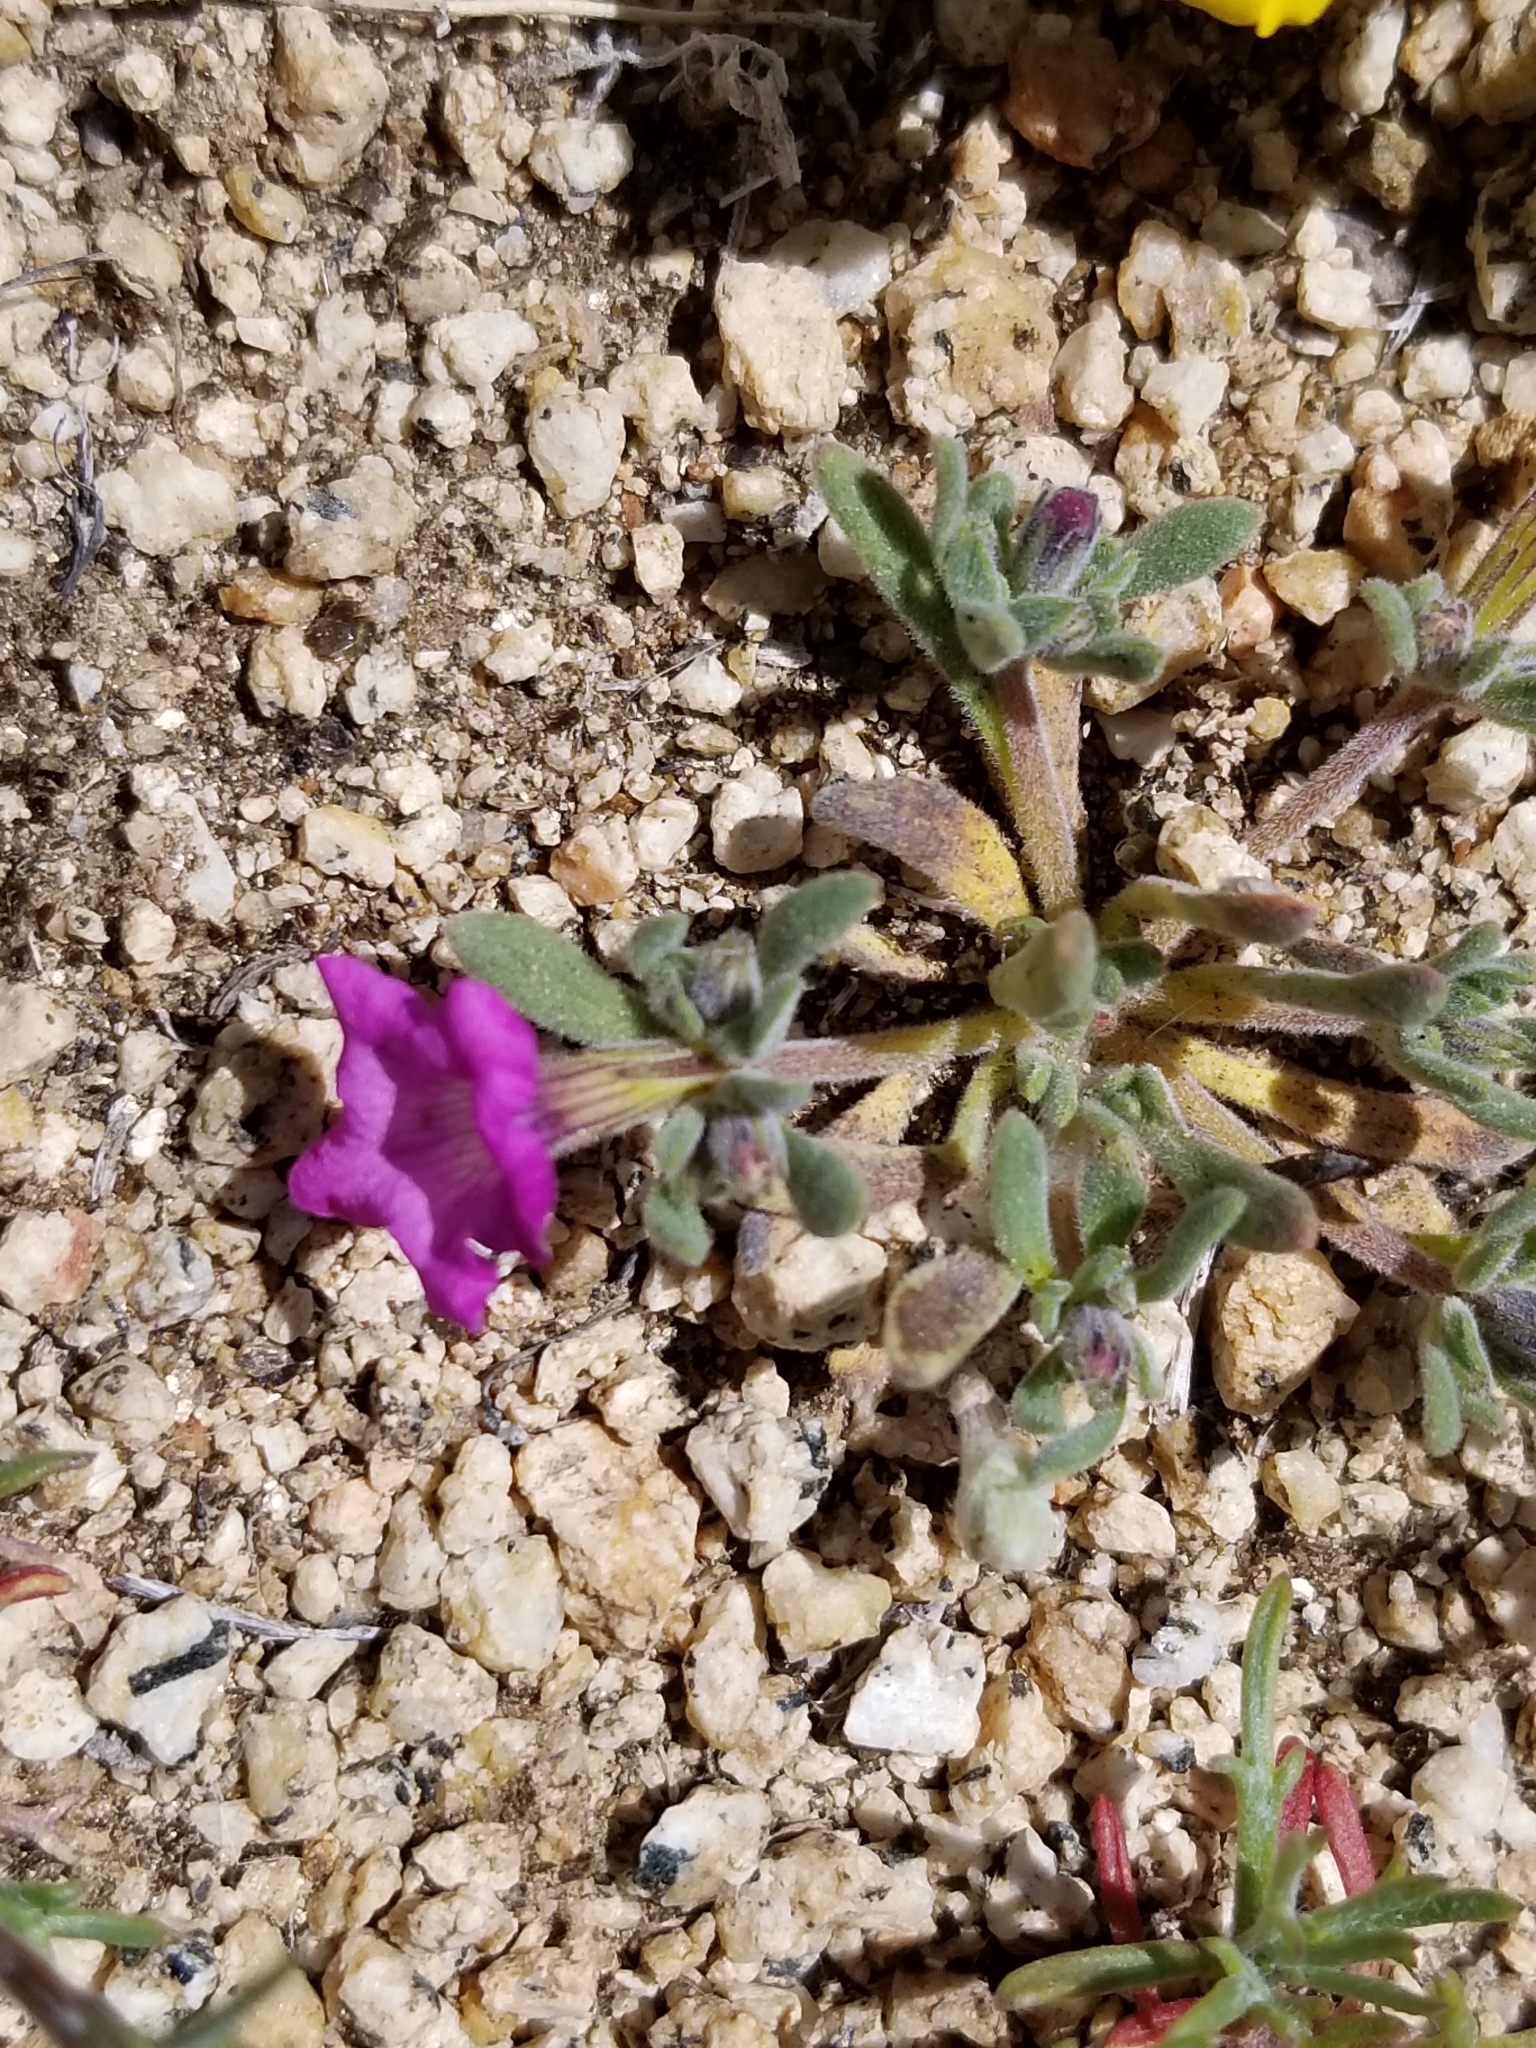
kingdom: Plantae
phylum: Tracheophyta
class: Magnoliopsida
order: Boraginales
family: Namaceae
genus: Nama
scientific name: Nama demissa
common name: Leafy nama
